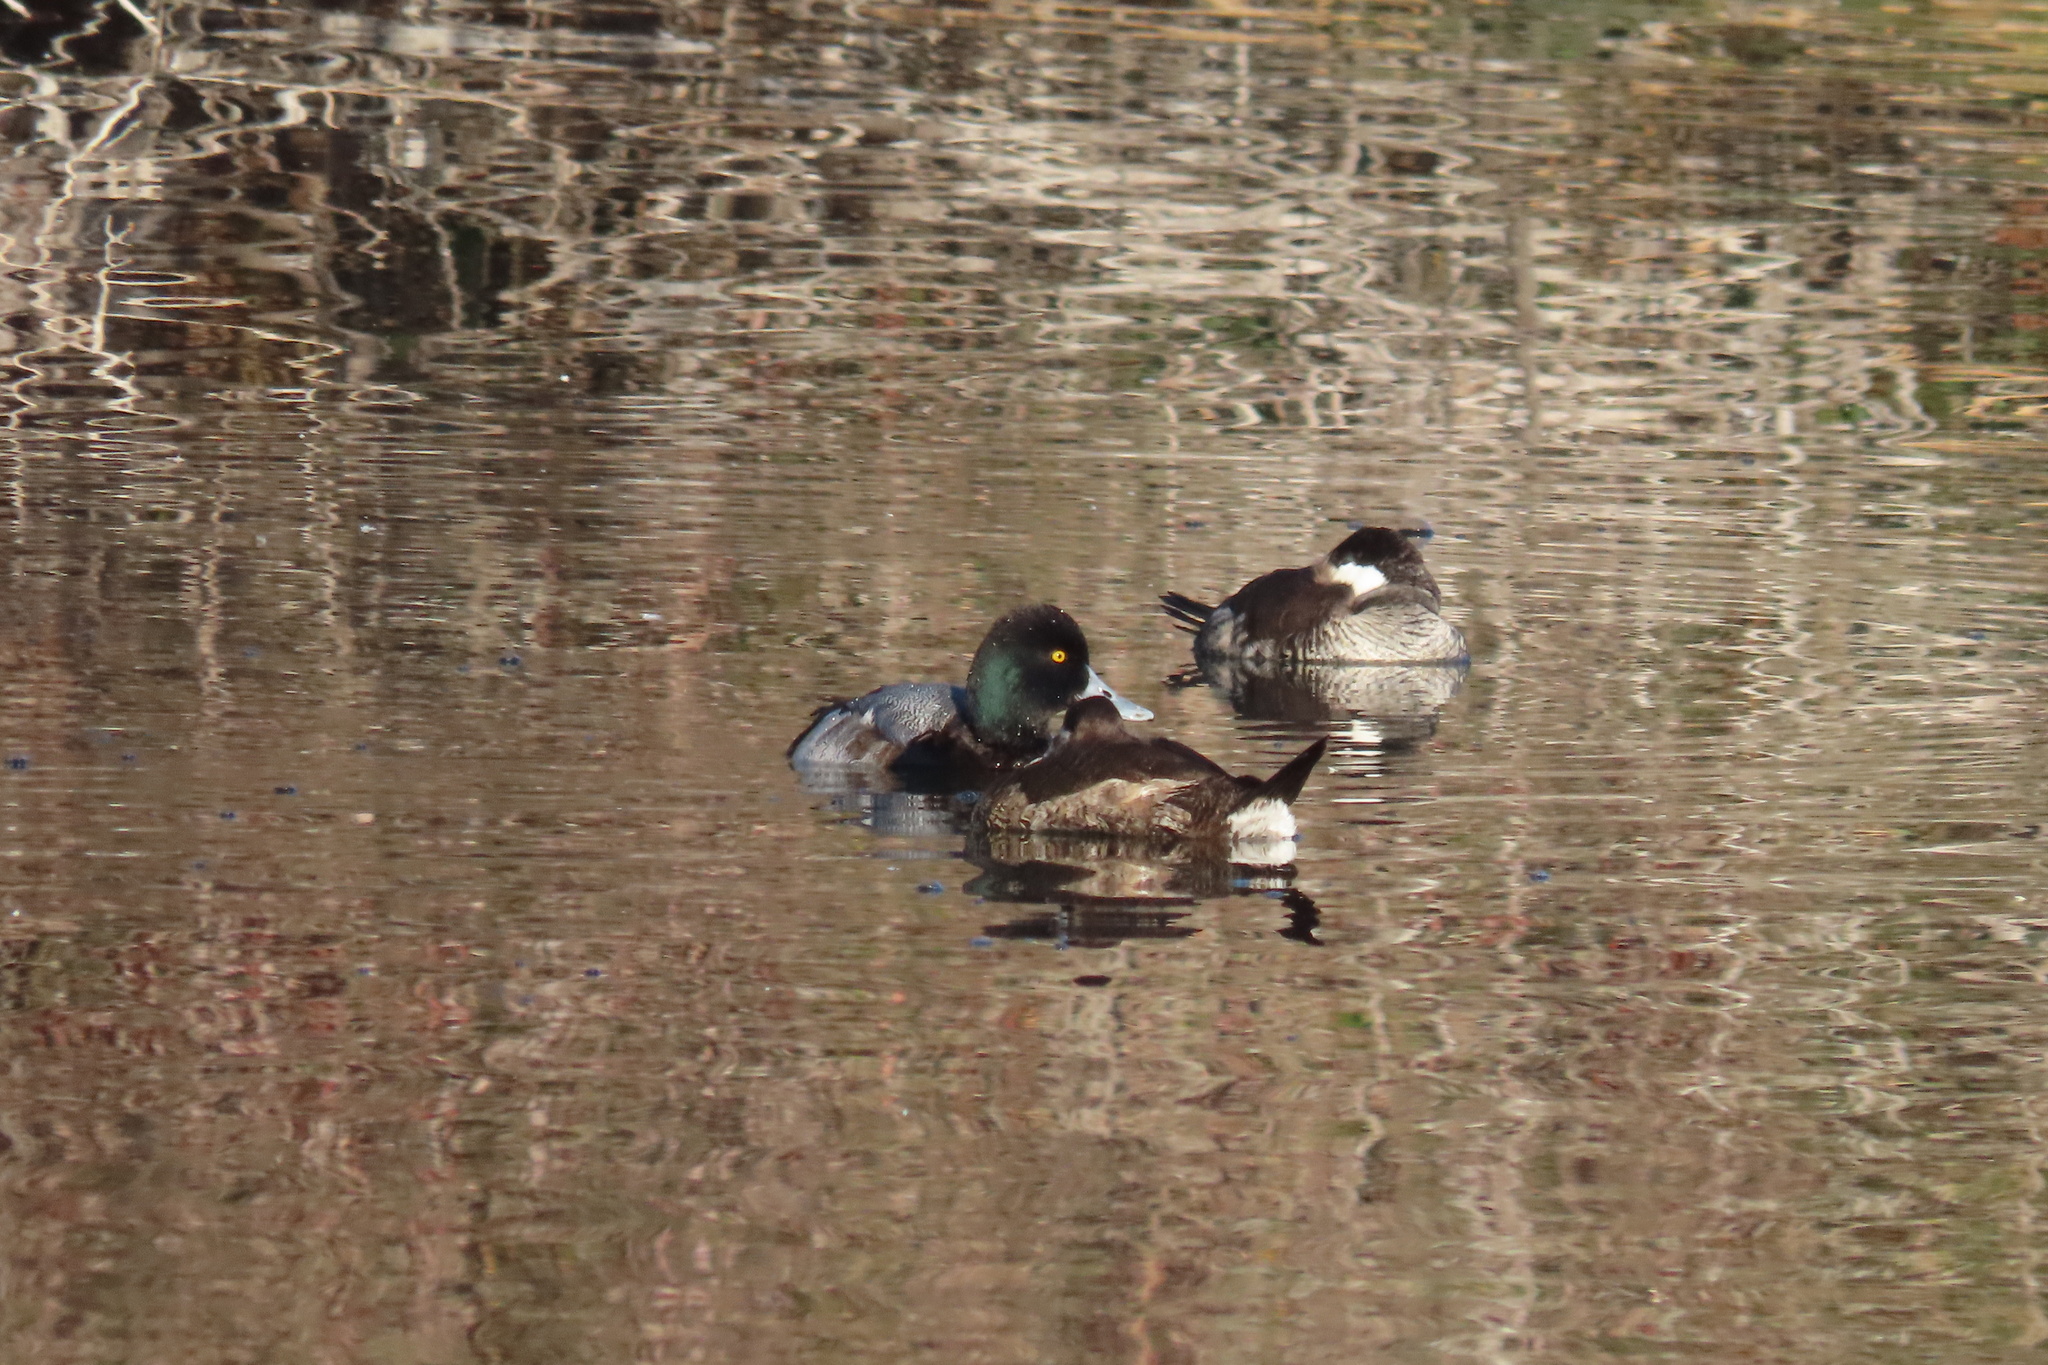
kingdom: Animalia
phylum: Chordata
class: Aves
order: Anseriformes
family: Anatidae
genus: Aythya
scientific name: Aythya marila
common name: Greater scaup
